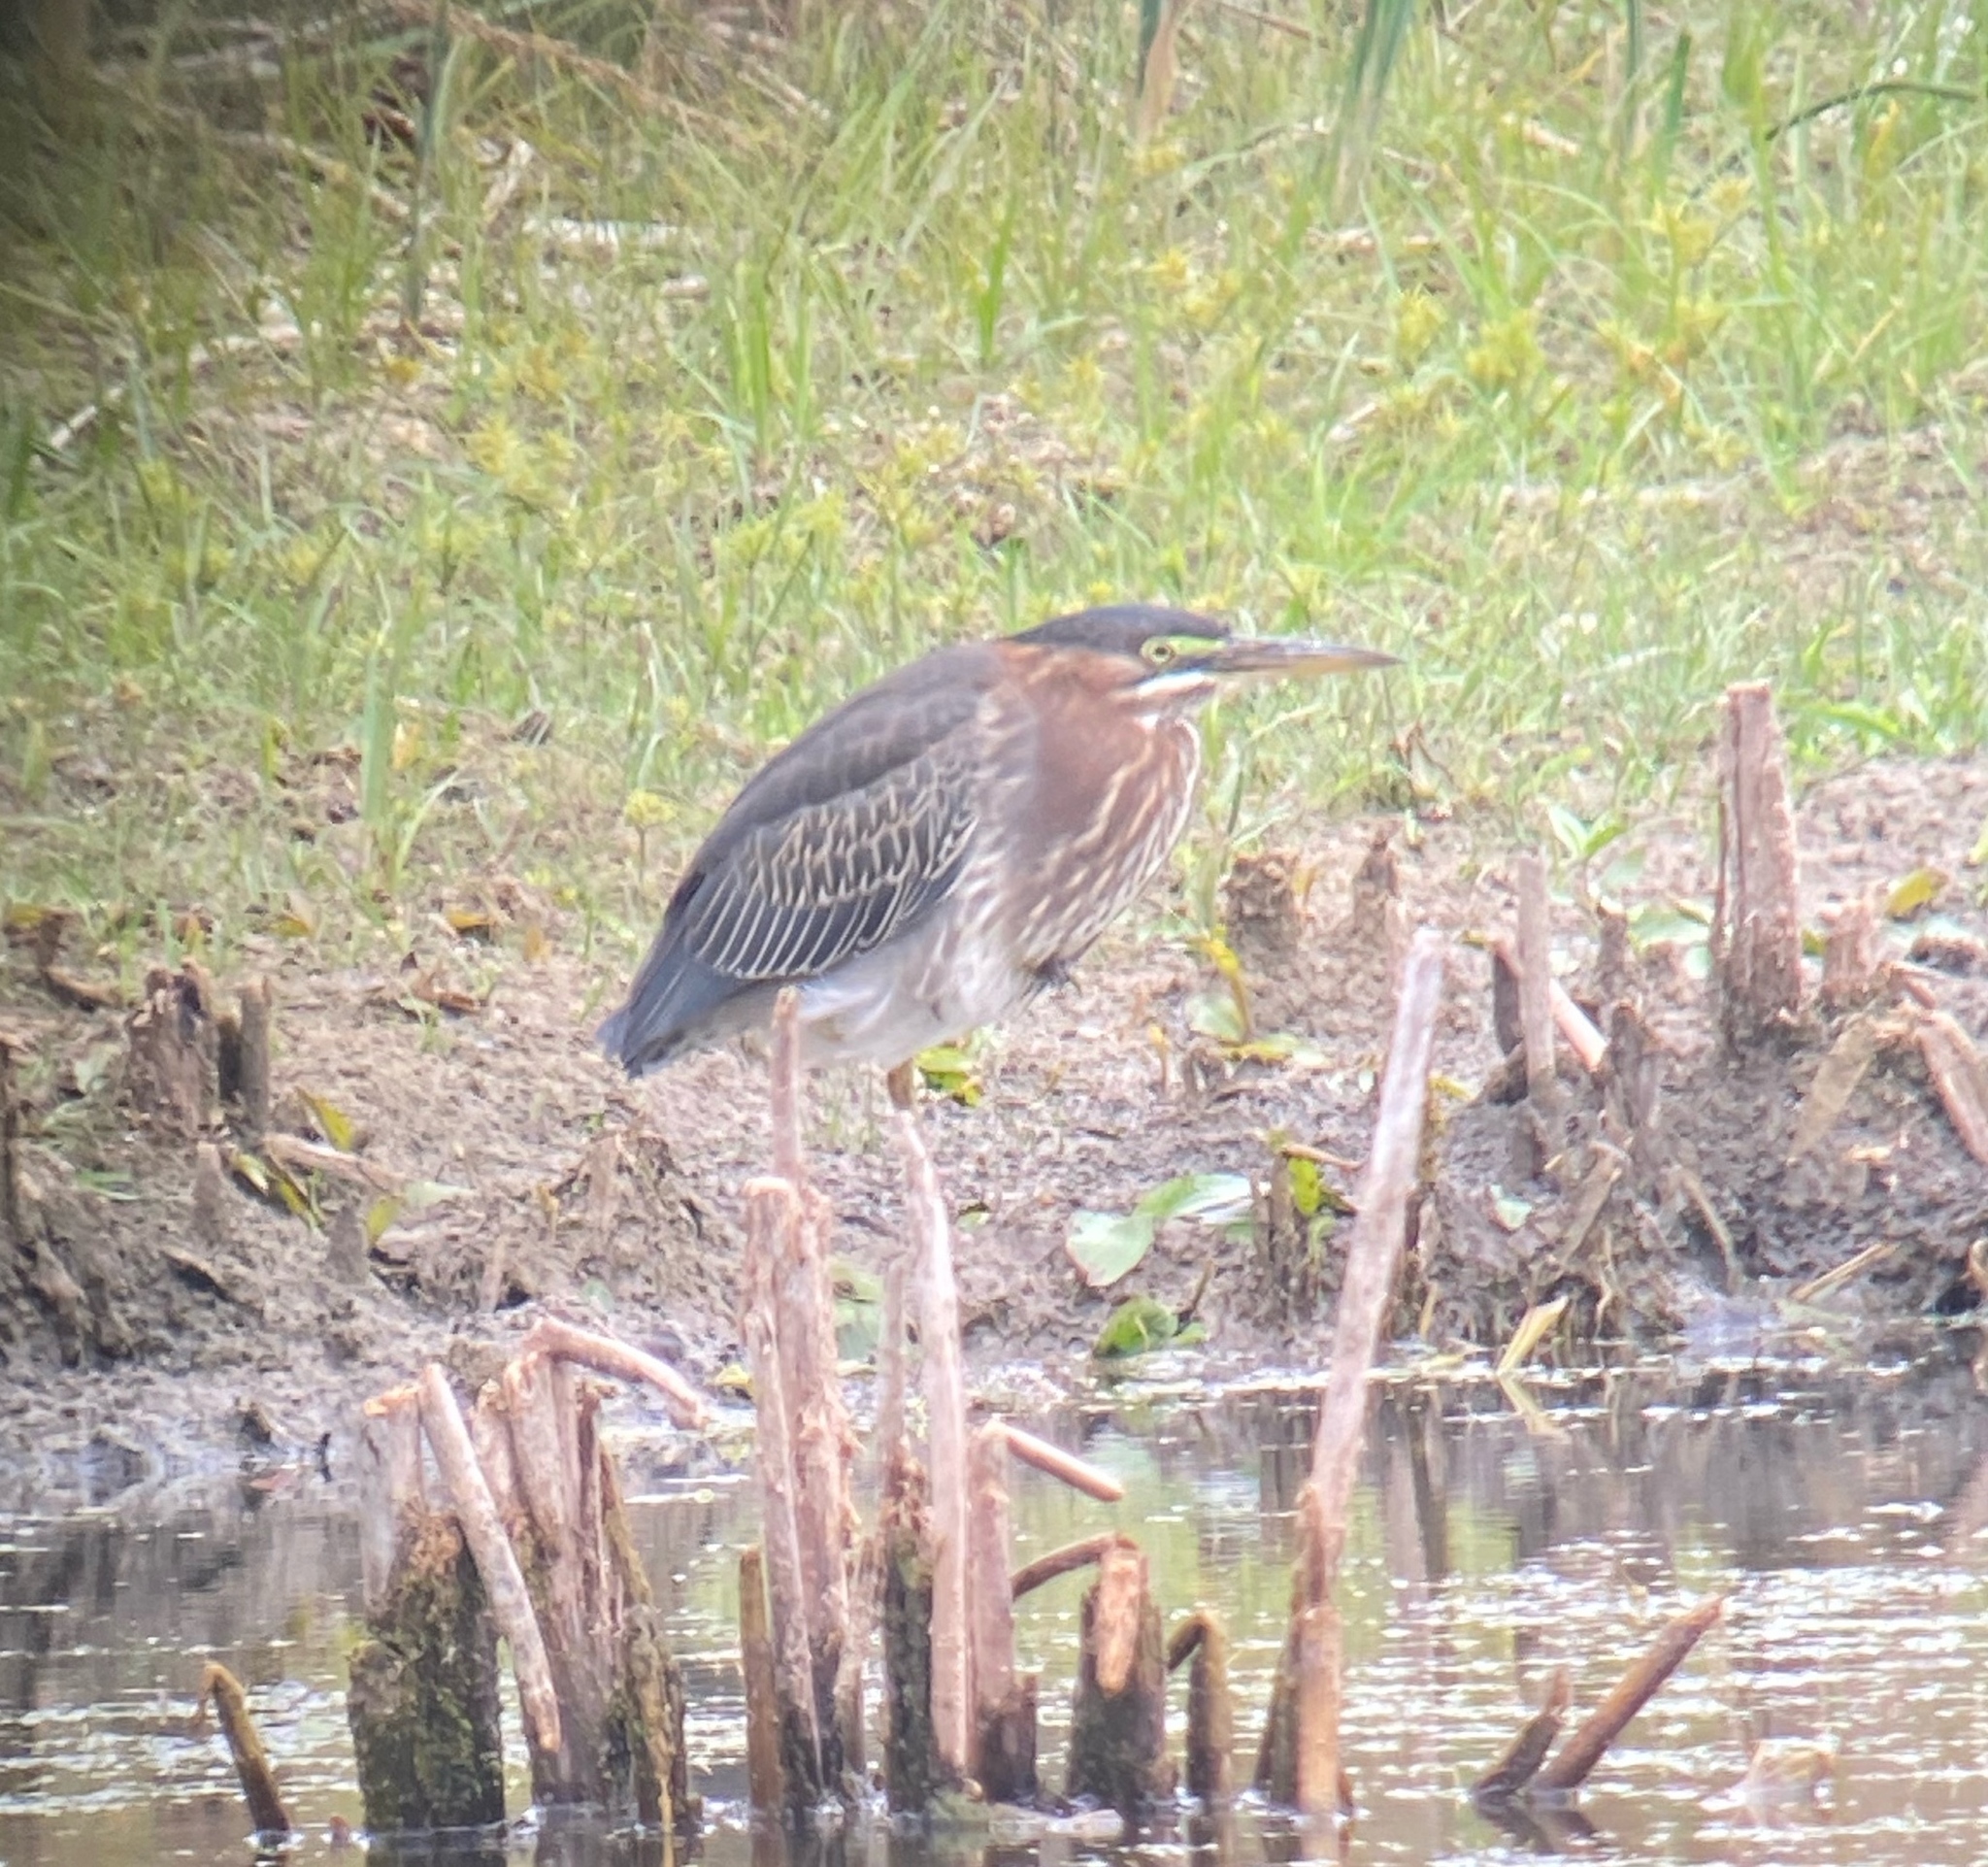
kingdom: Animalia
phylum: Chordata
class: Aves
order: Pelecaniformes
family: Ardeidae
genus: Butorides
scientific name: Butorides virescens
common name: Green heron
